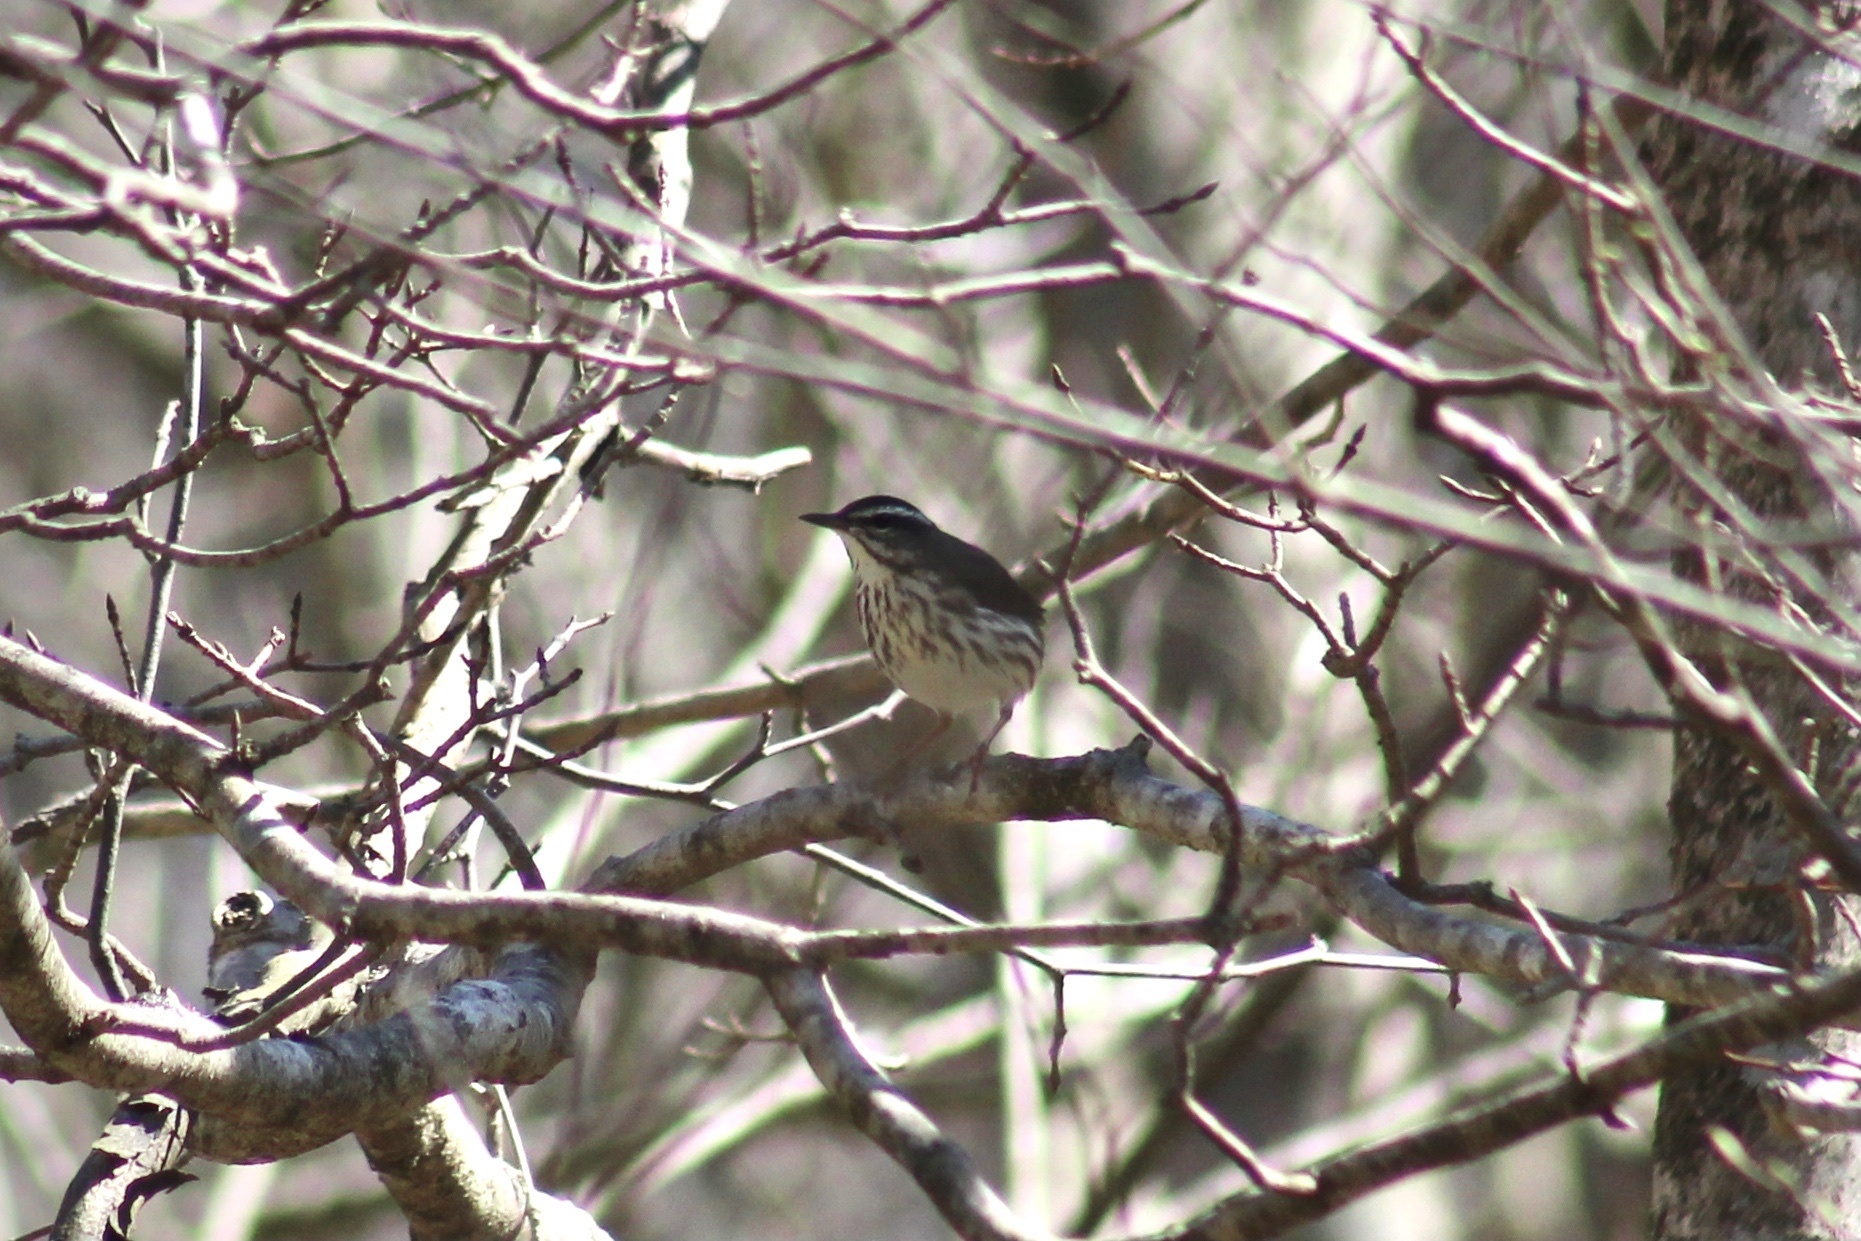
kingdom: Animalia
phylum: Chordata
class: Aves
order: Passeriformes
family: Parulidae
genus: Parkesia
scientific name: Parkesia motacilla
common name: Louisiana waterthrush
